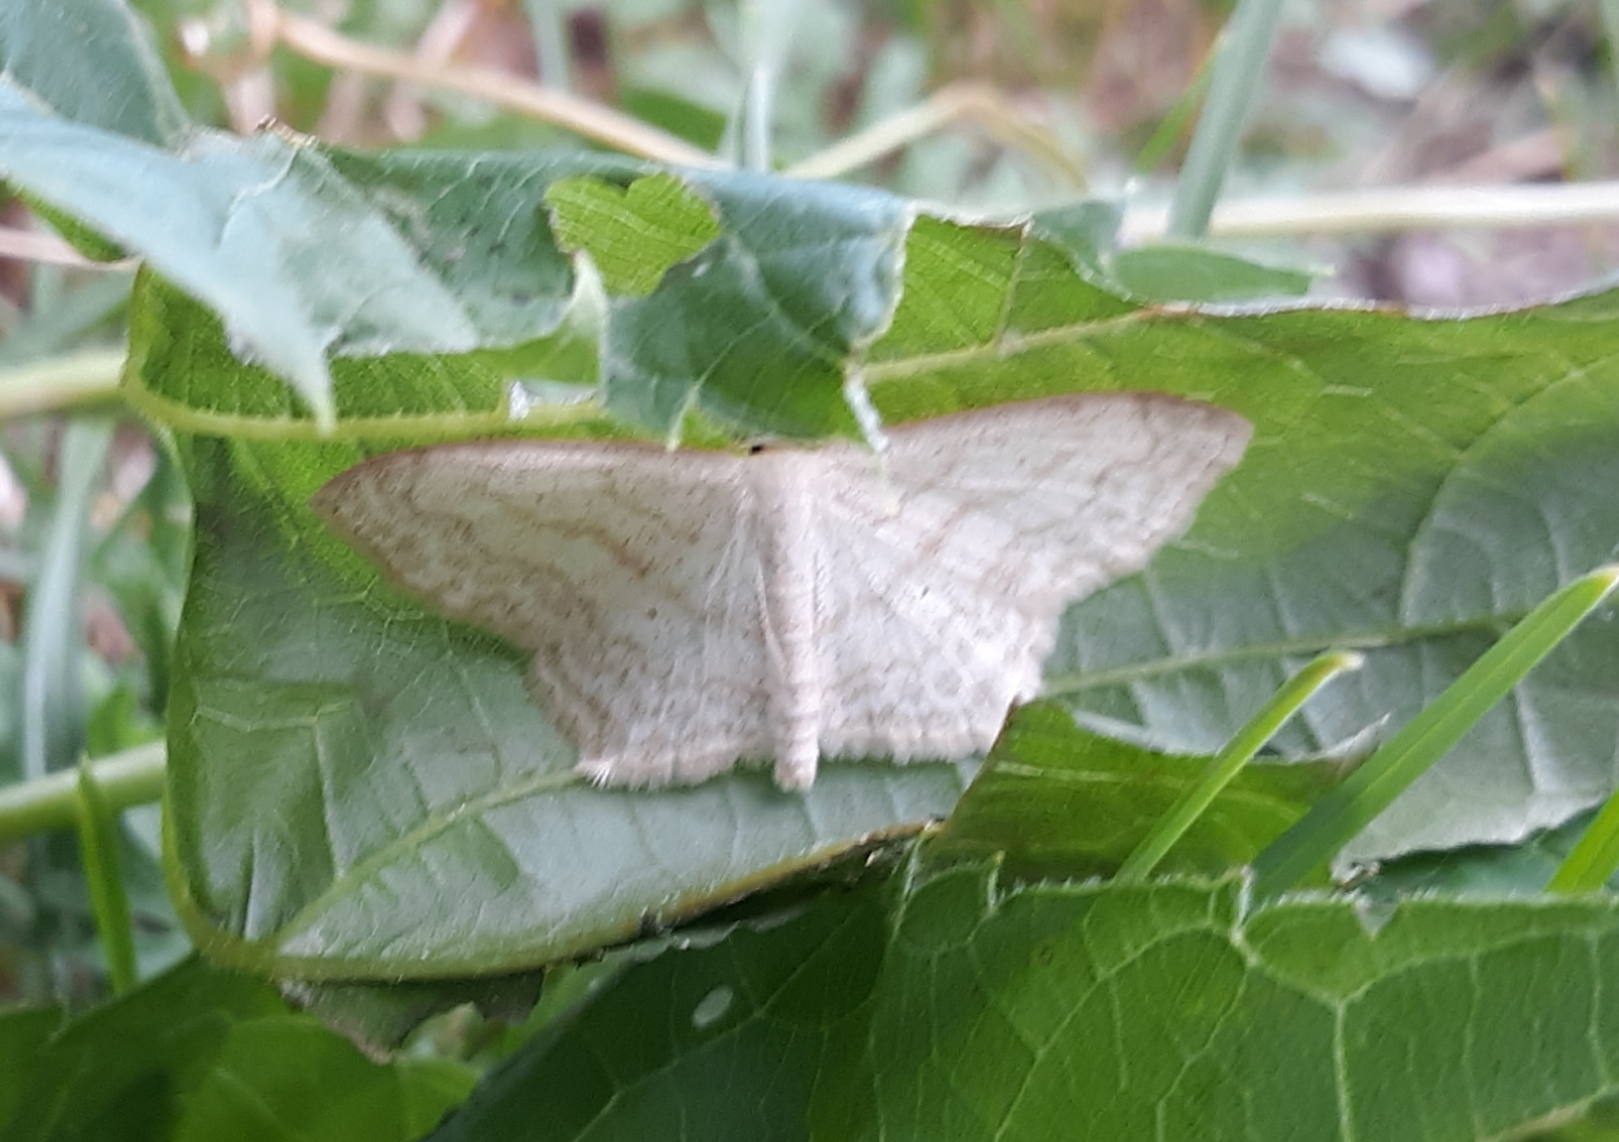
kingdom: Animalia
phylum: Arthropoda
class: Insecta
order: Lepidoptera
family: Geometridae
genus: Scopula
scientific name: Scopula limboundata
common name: Large lace border
